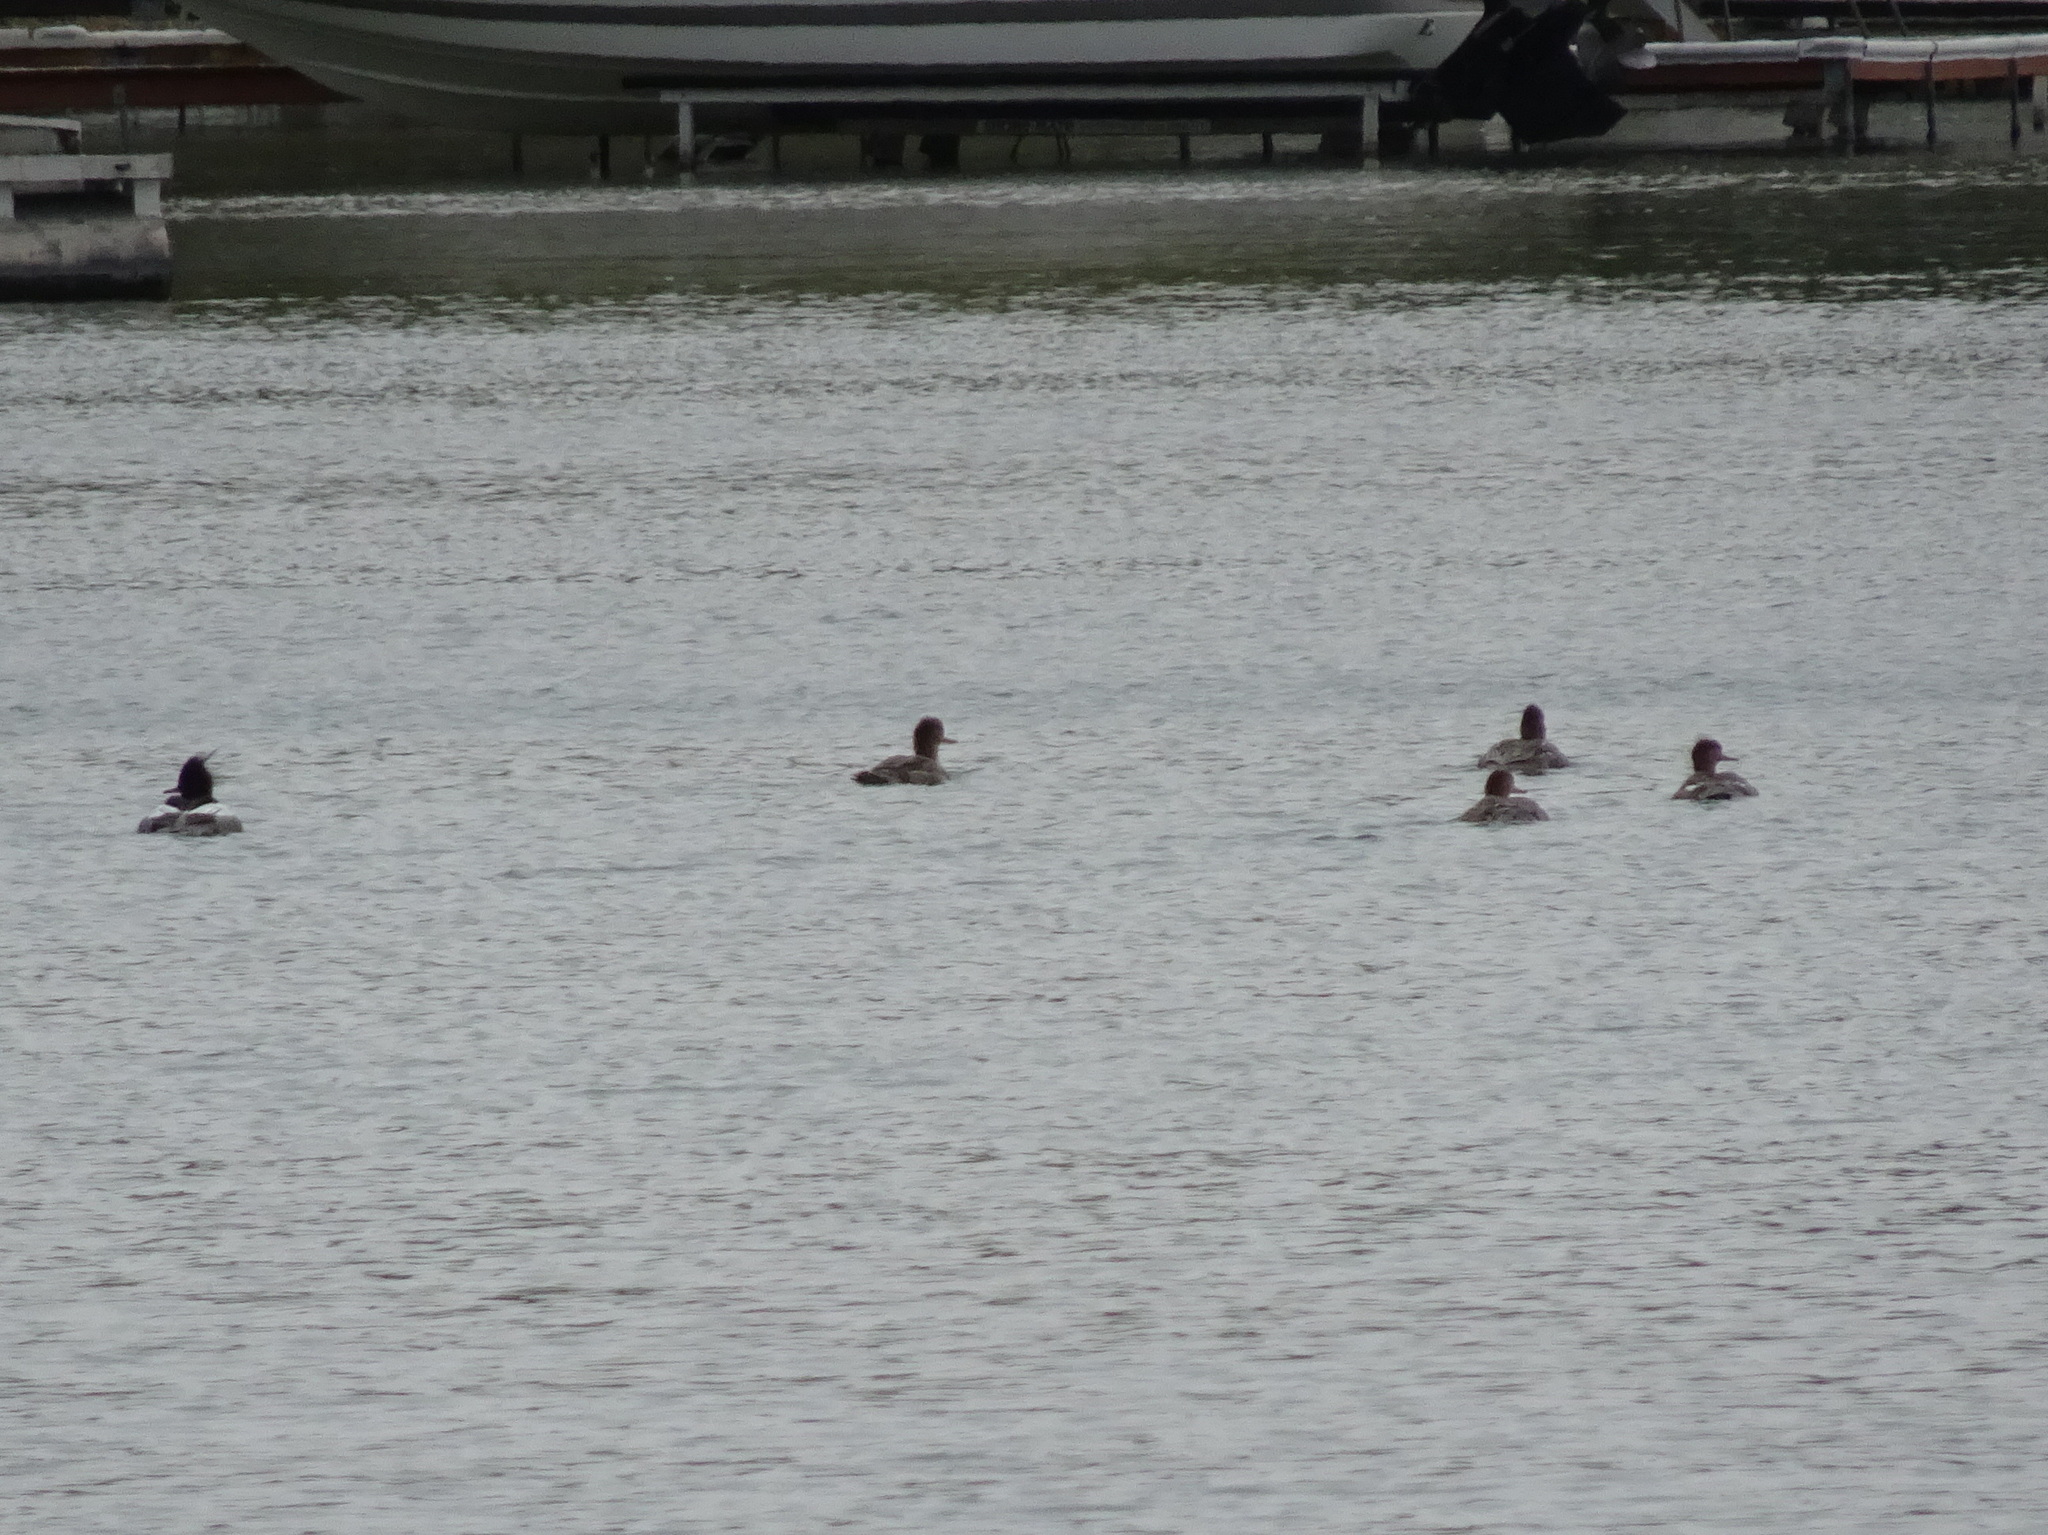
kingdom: Animalia
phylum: Chordata
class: Aves
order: Anseriformes
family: Anatidae
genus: Mergus
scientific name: Mergus serrator
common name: Red-breasted merganser
